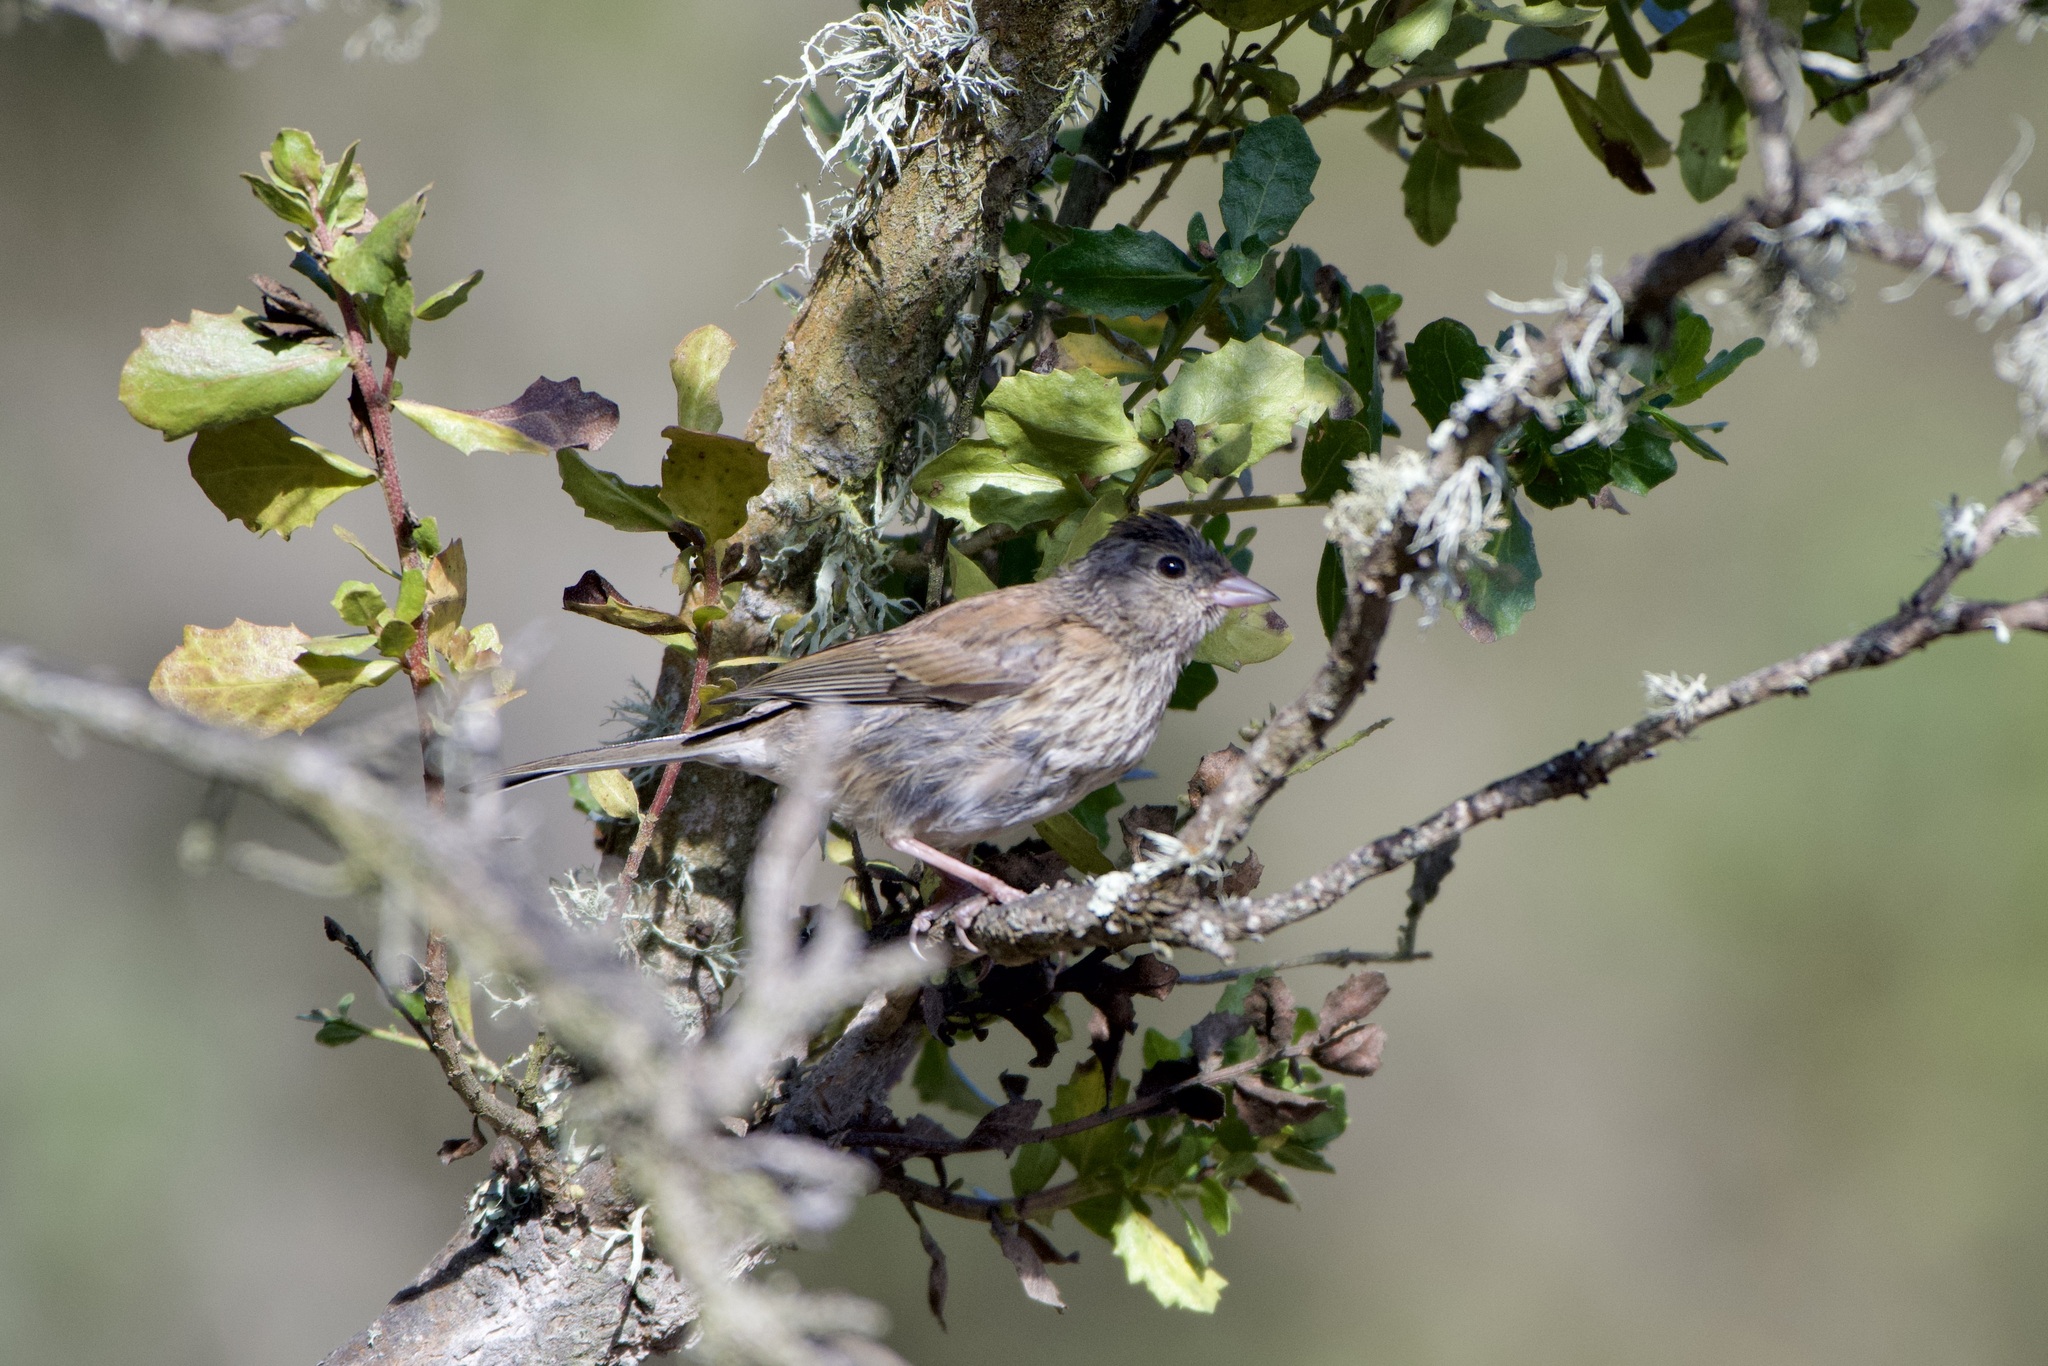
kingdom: Animalia
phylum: Chordata
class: Aves
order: Passeriformes
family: Passerellidae
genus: Junco
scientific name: Junco hyemalis
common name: Dark-eyed junco
